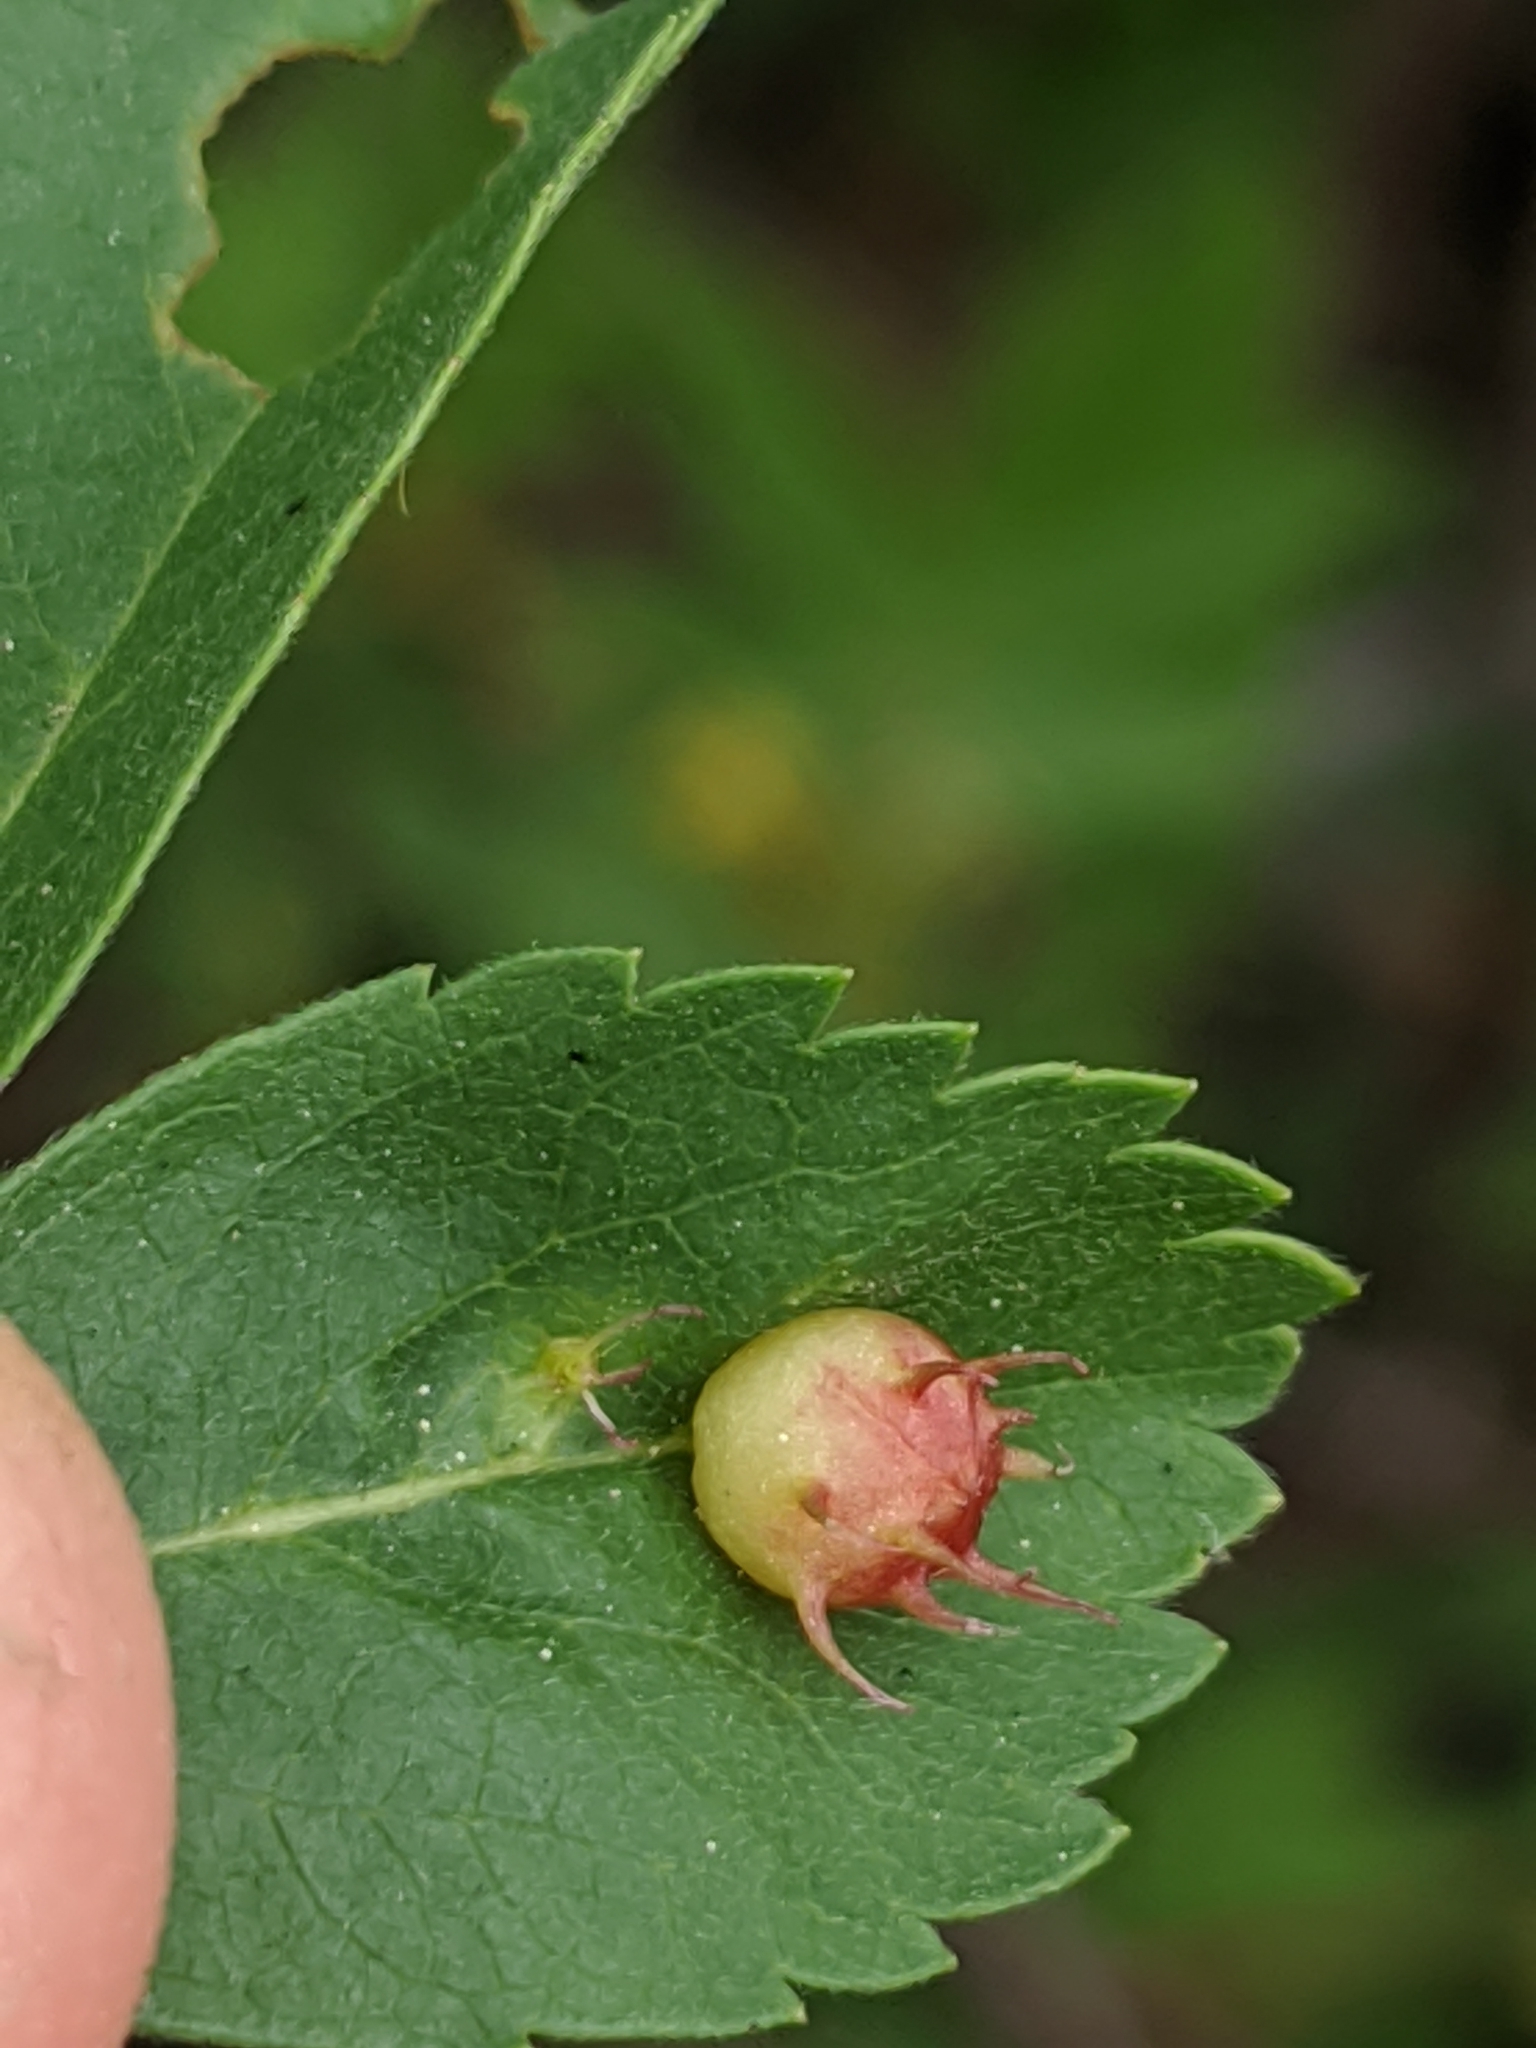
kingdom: Animalia
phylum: Arthropoda
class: Insecta
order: Hymenoptera
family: Cynipidae
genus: Diplolepis
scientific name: Diplolepis polita
